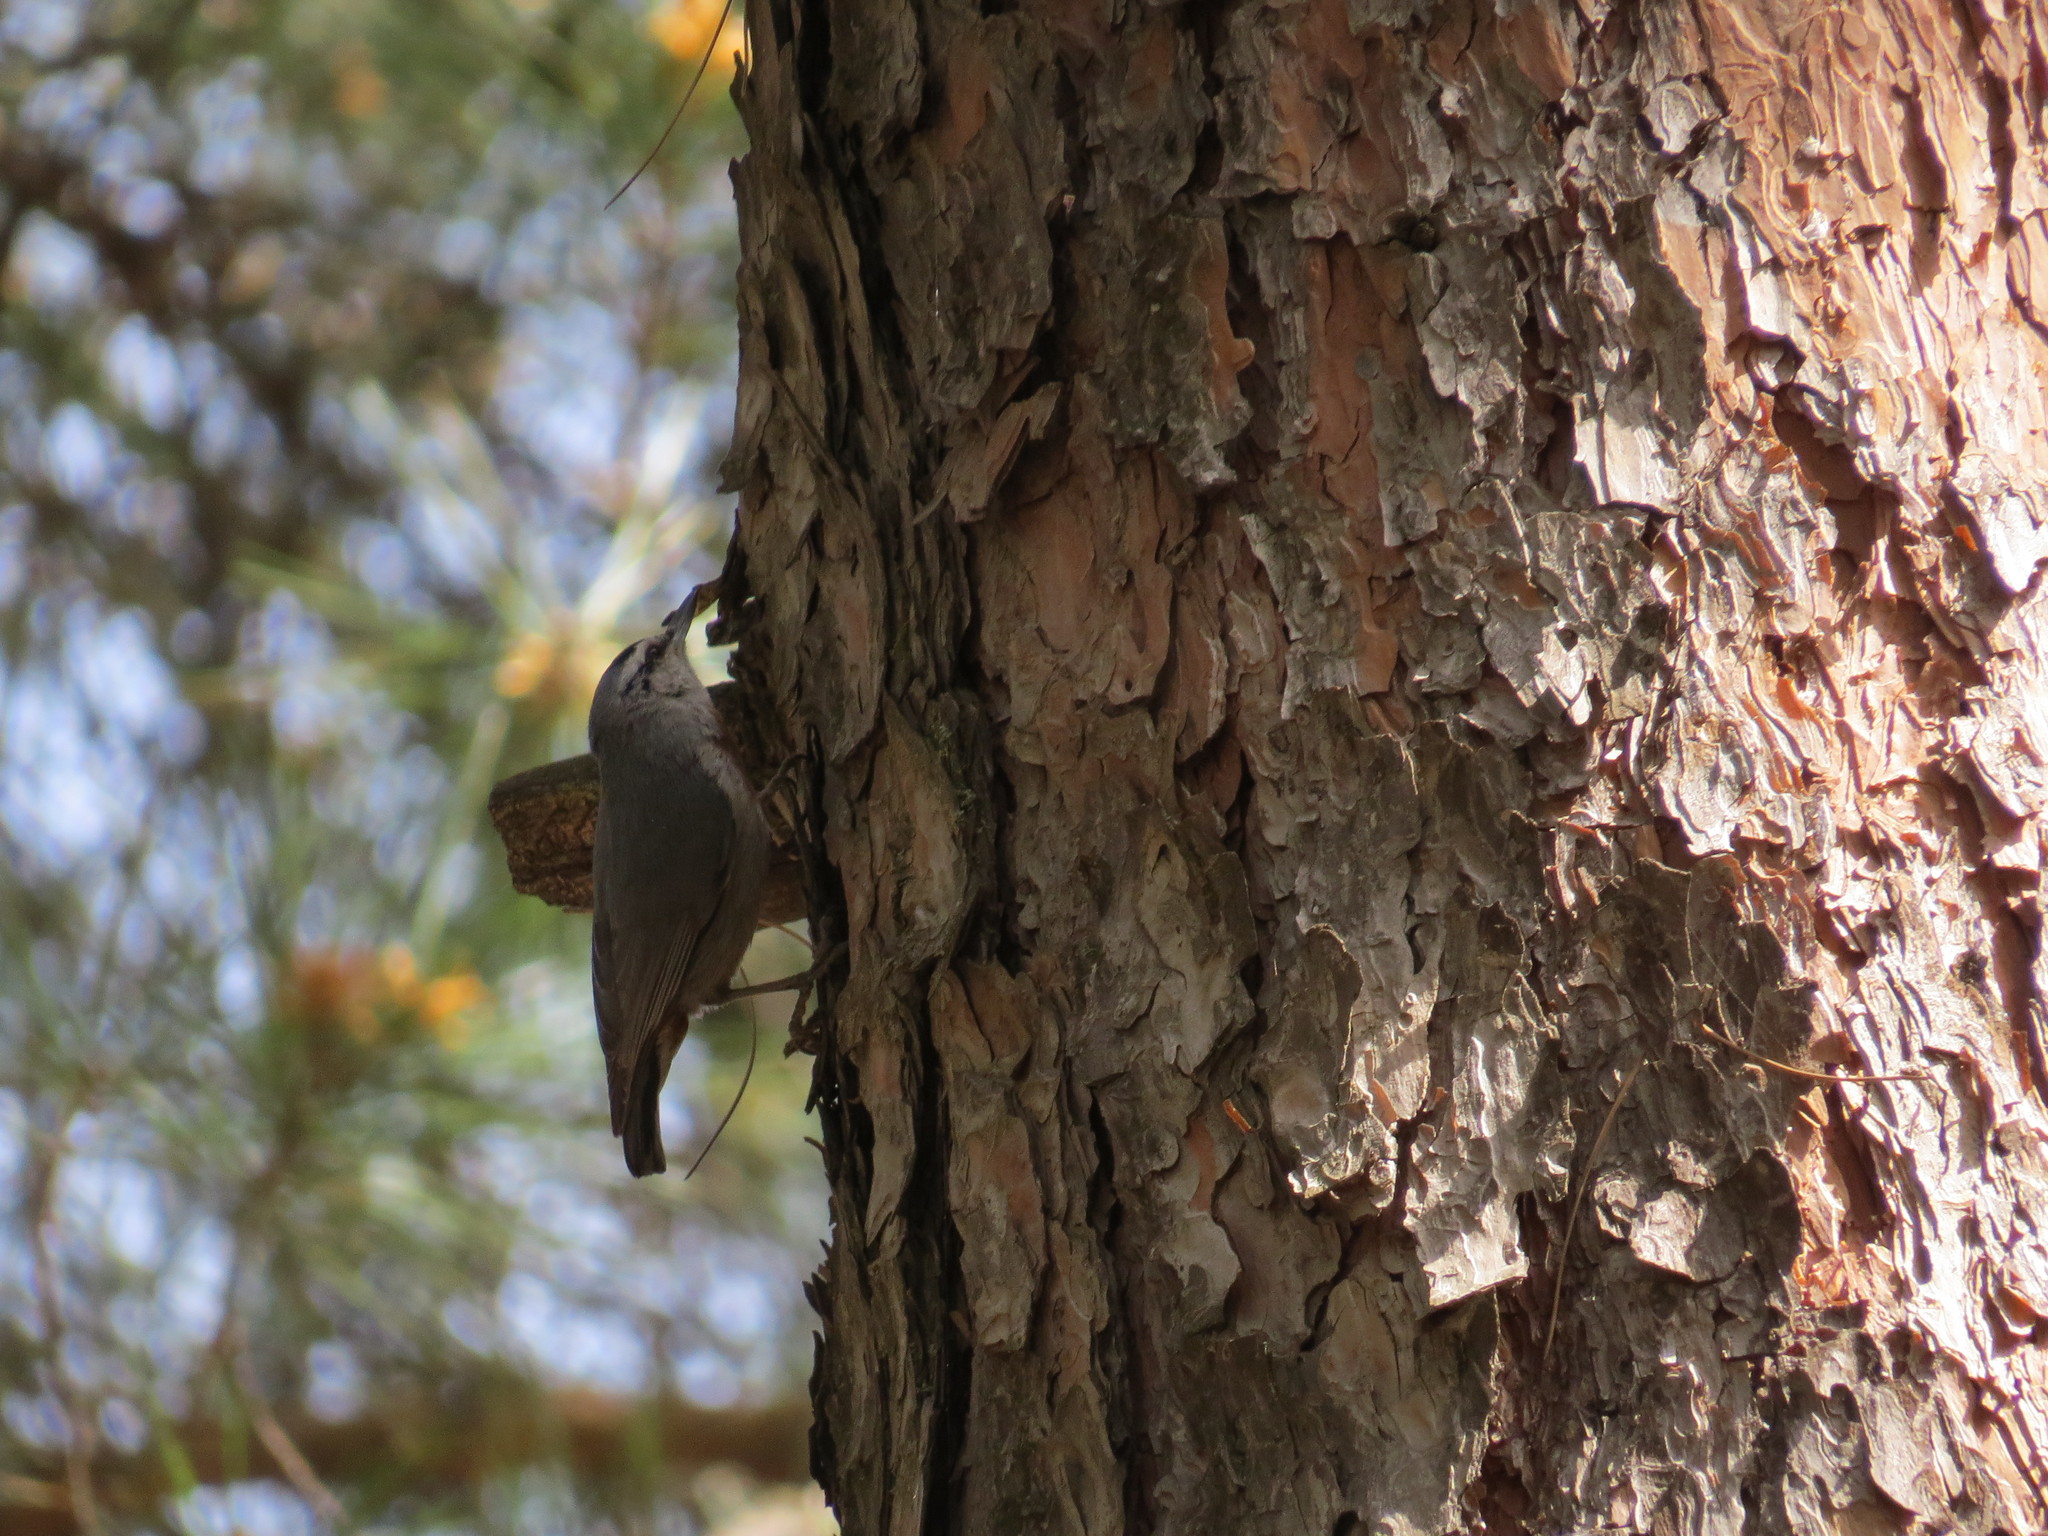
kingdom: Animalia
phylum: Chordata
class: Aves
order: Passeriformes
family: Sittidae
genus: Sitta
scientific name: Sitta krueperi
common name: Krüper's nuthatch
